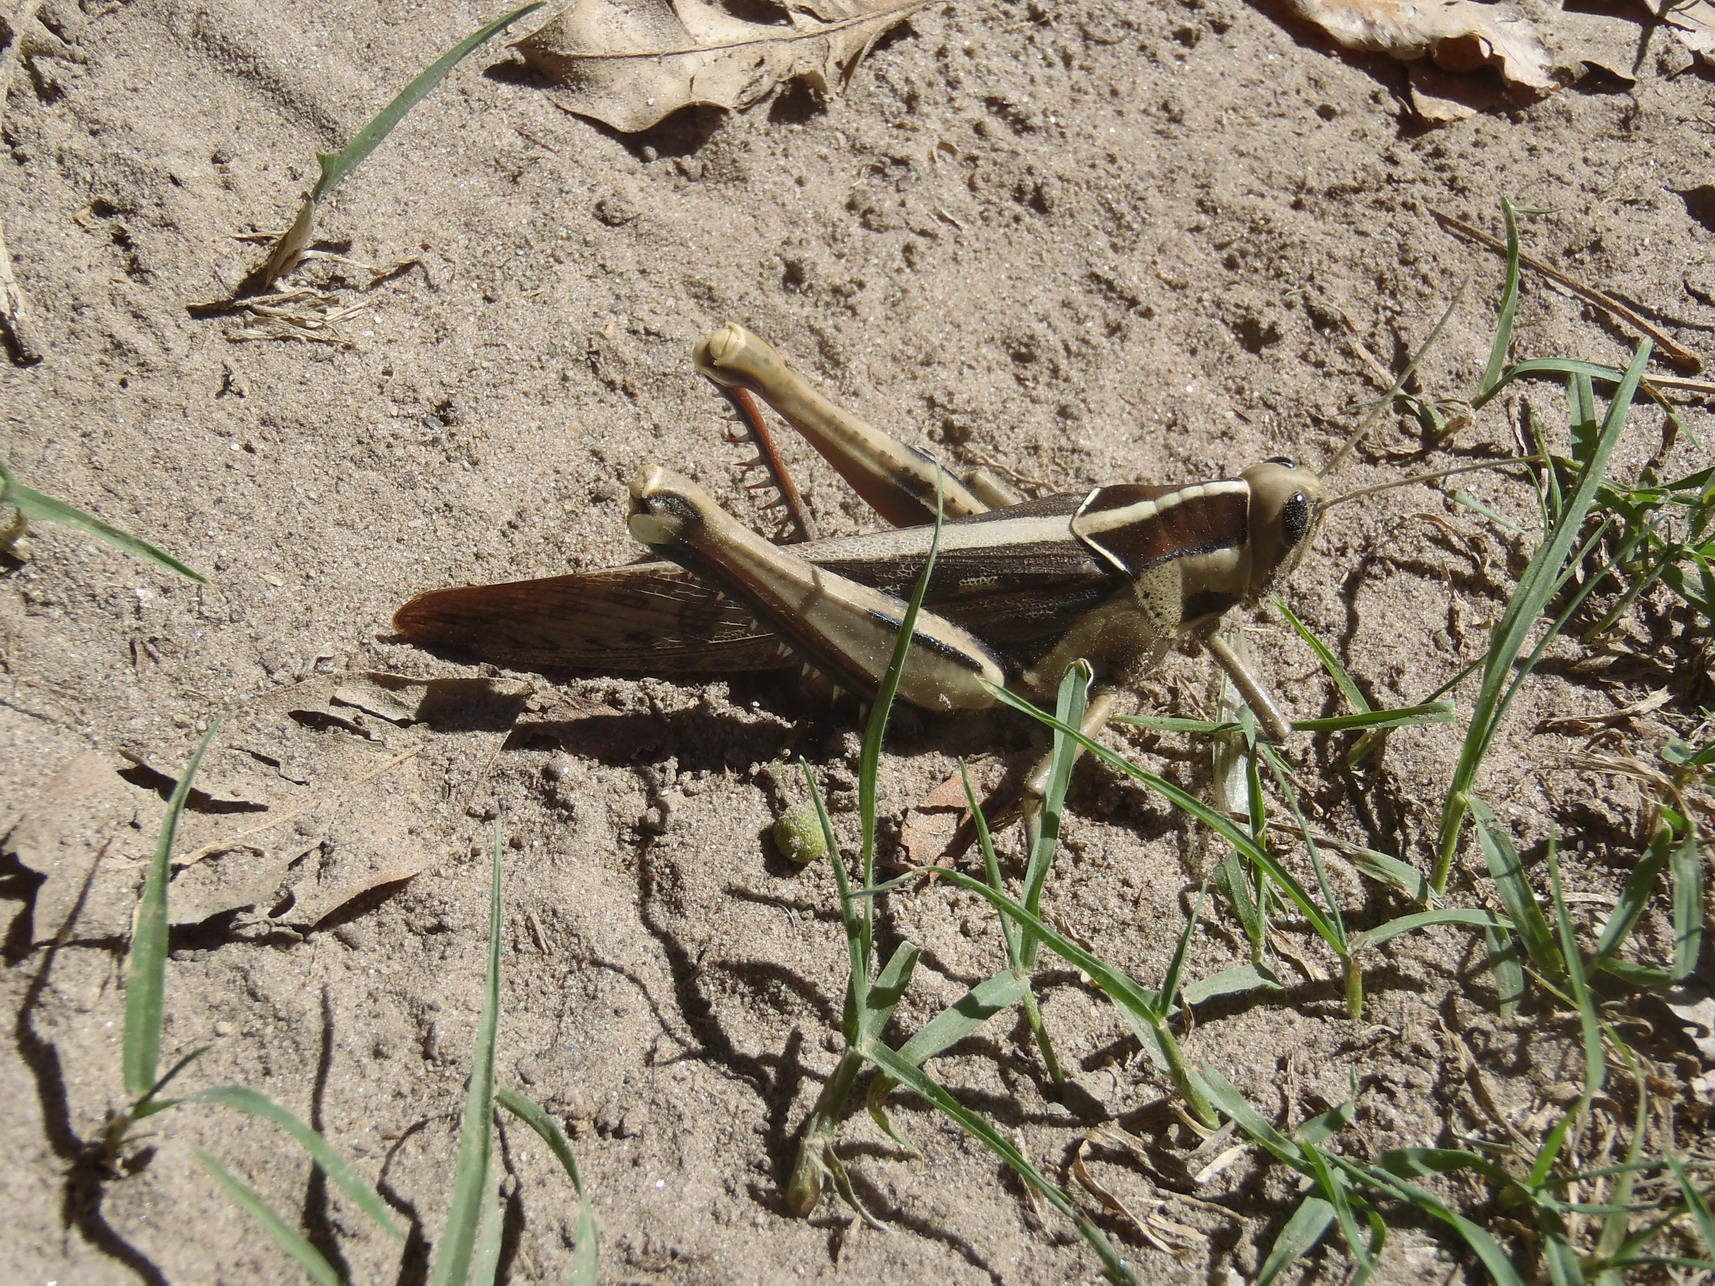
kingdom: Animalia
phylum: Arthropoda
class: Insecta
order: Orthoptera
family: Acrididae
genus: Acanthacris
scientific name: Acanthacris ruficornis
